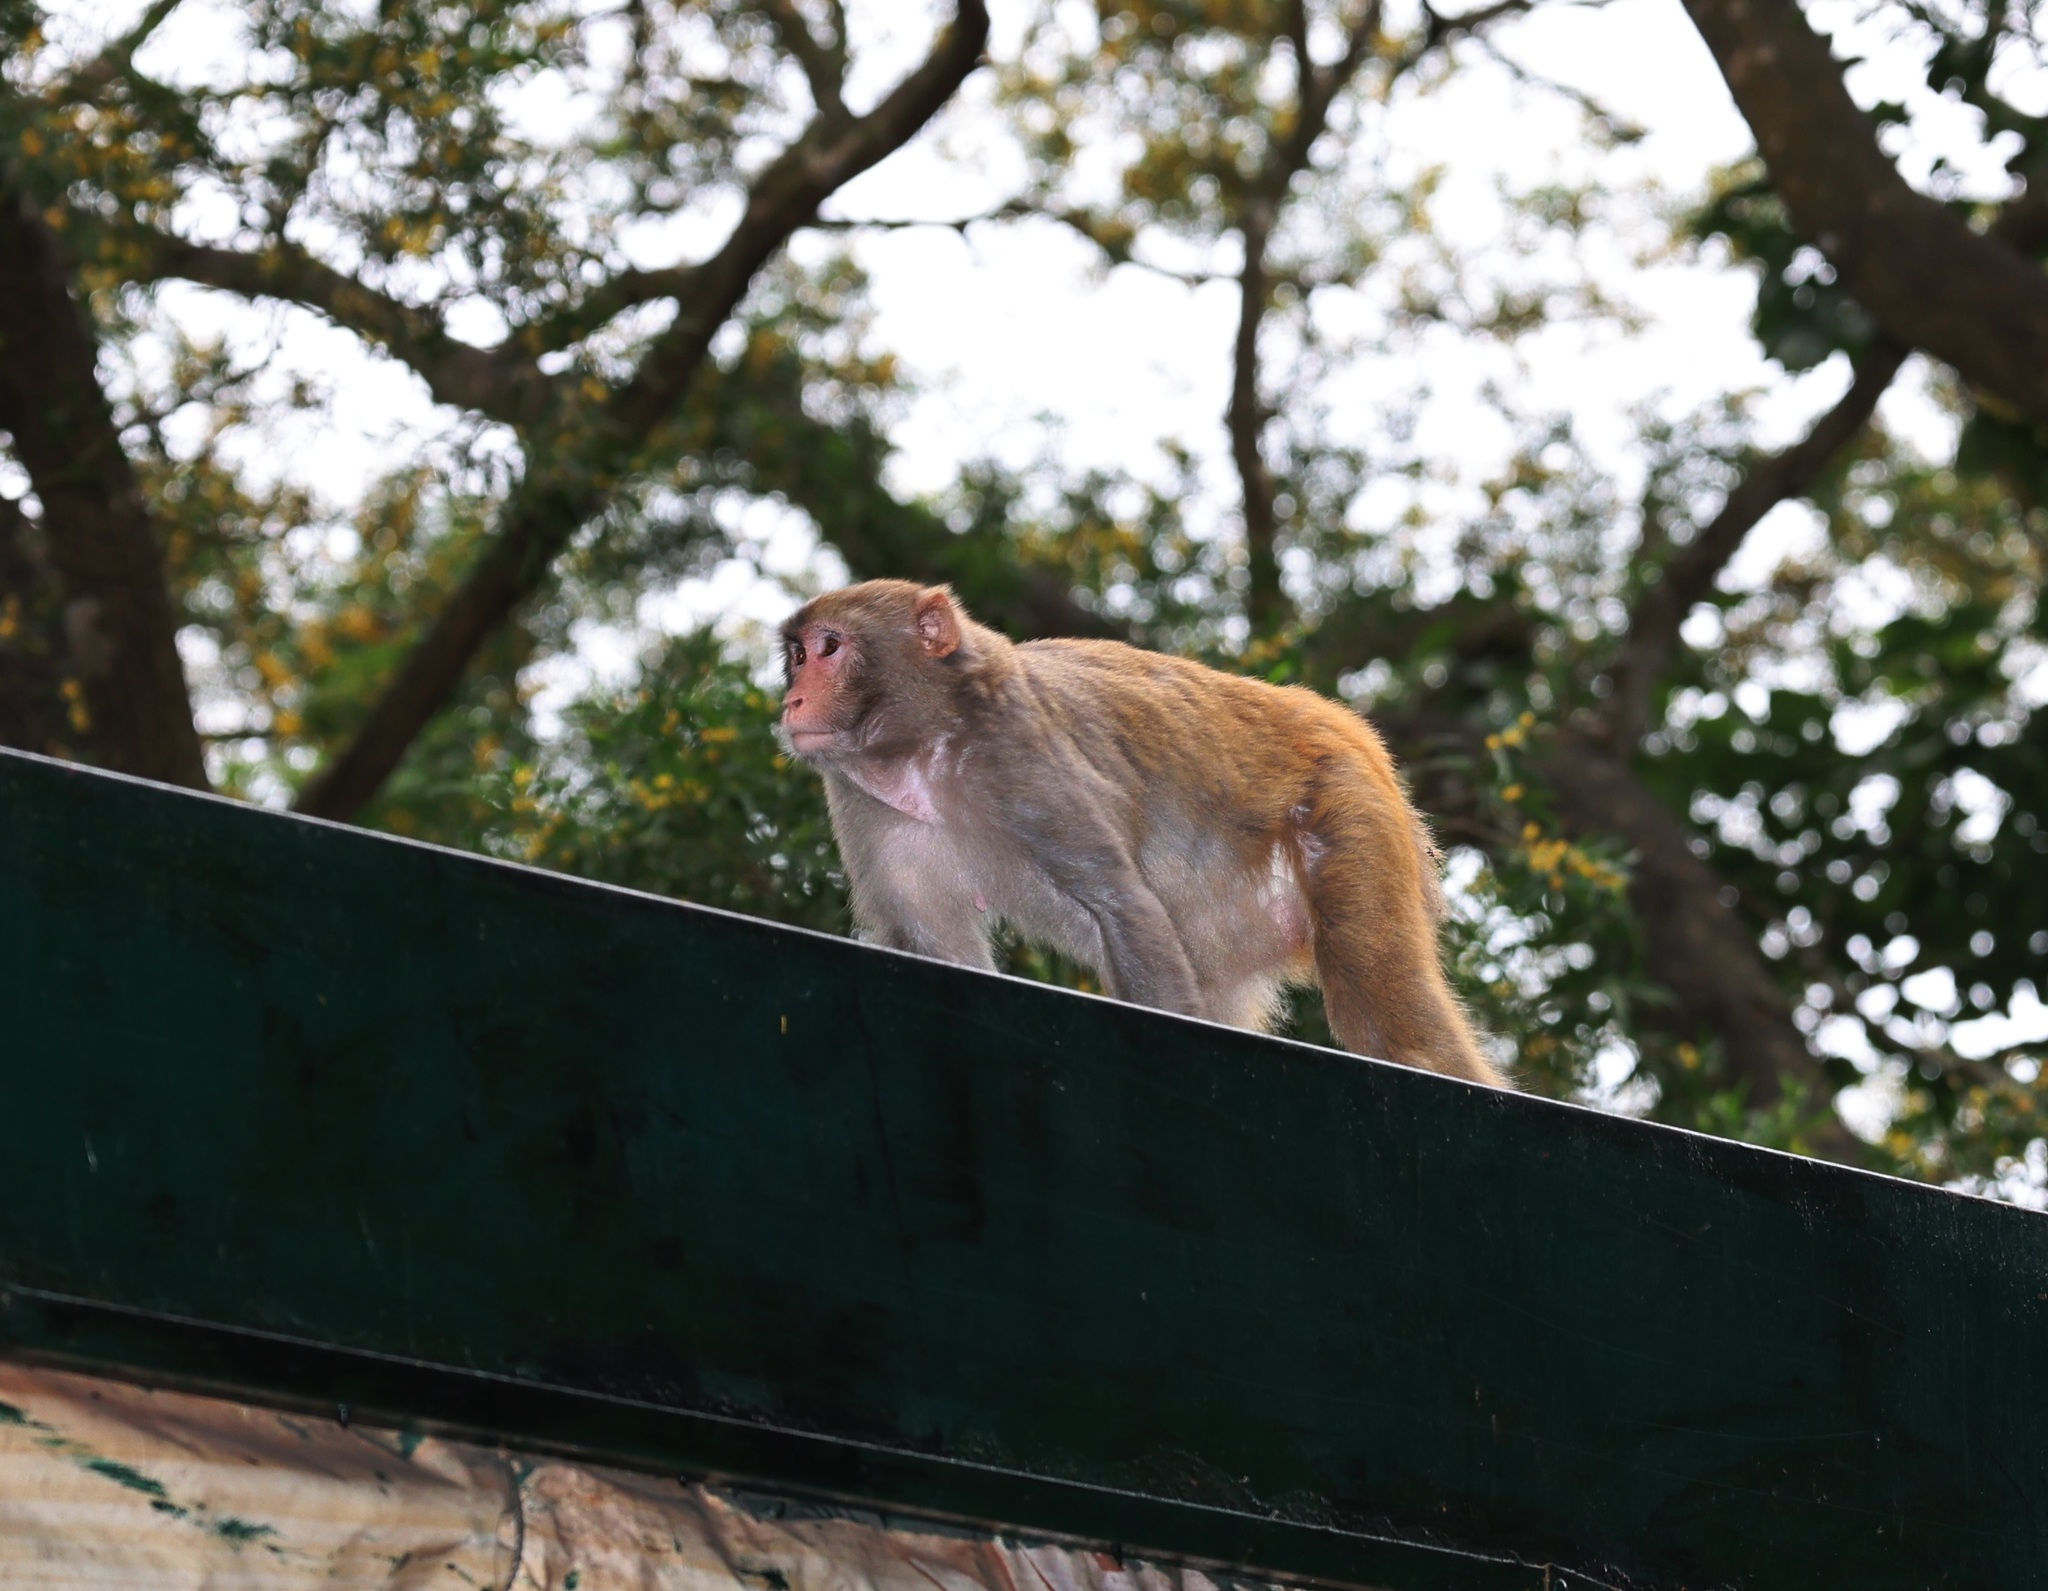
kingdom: Animalia
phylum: Chordata
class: Mammalia
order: Primates
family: Cercopithecidae
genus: Macaca
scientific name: Macaca mulatta
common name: Rhesus monkey
